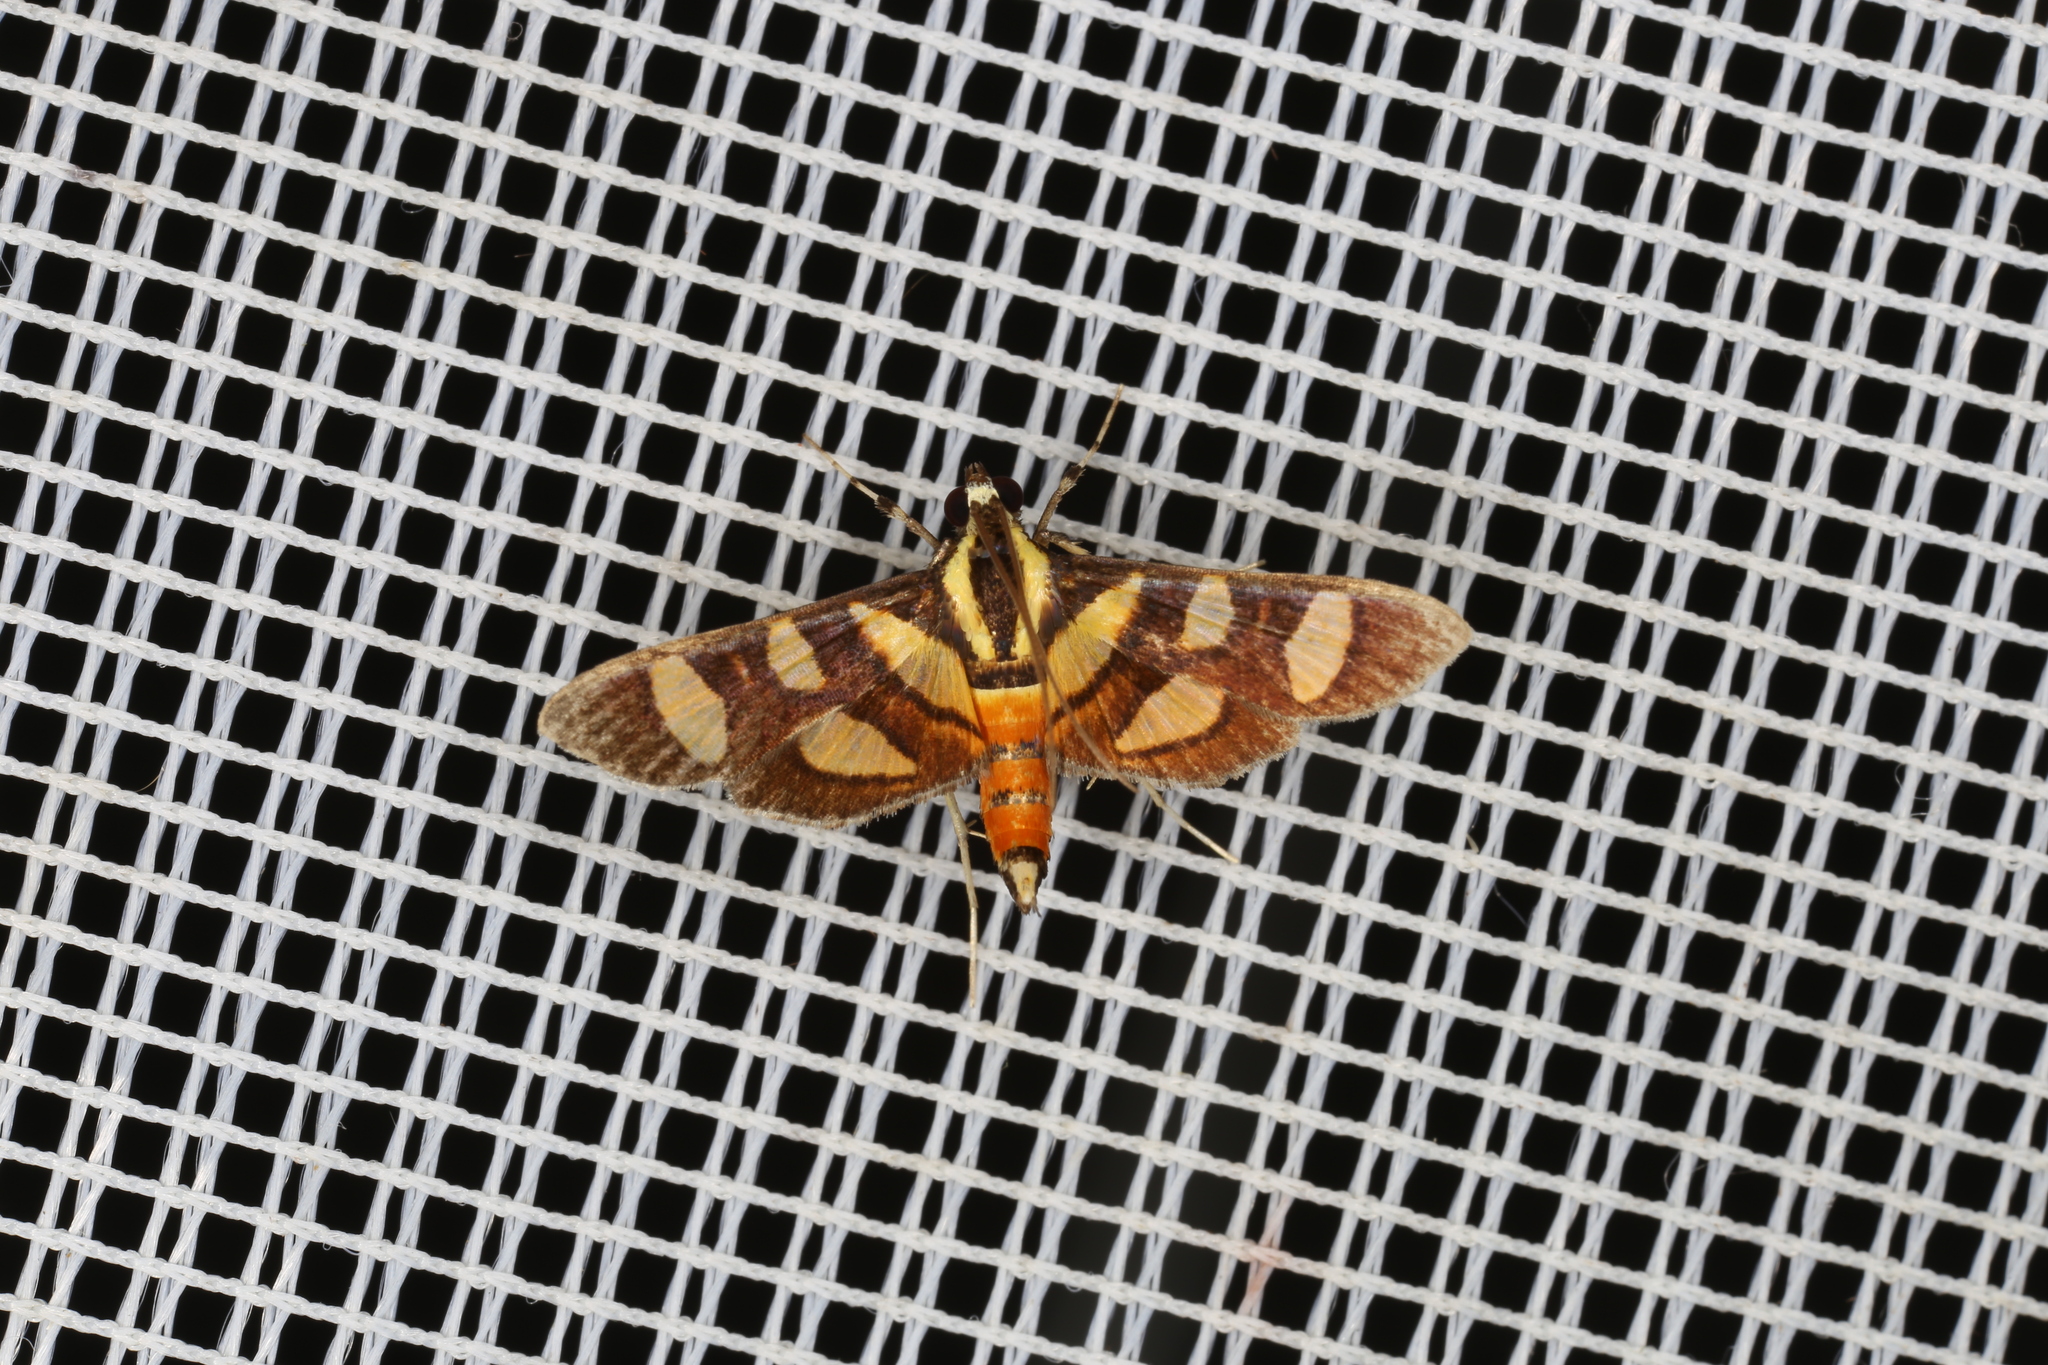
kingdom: Animalia
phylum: Arthropoda
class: Insecta
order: Lepidoptera
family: Crambidae
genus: Syngamia
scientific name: Syngamia florella
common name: Orange-spotted flower moth
